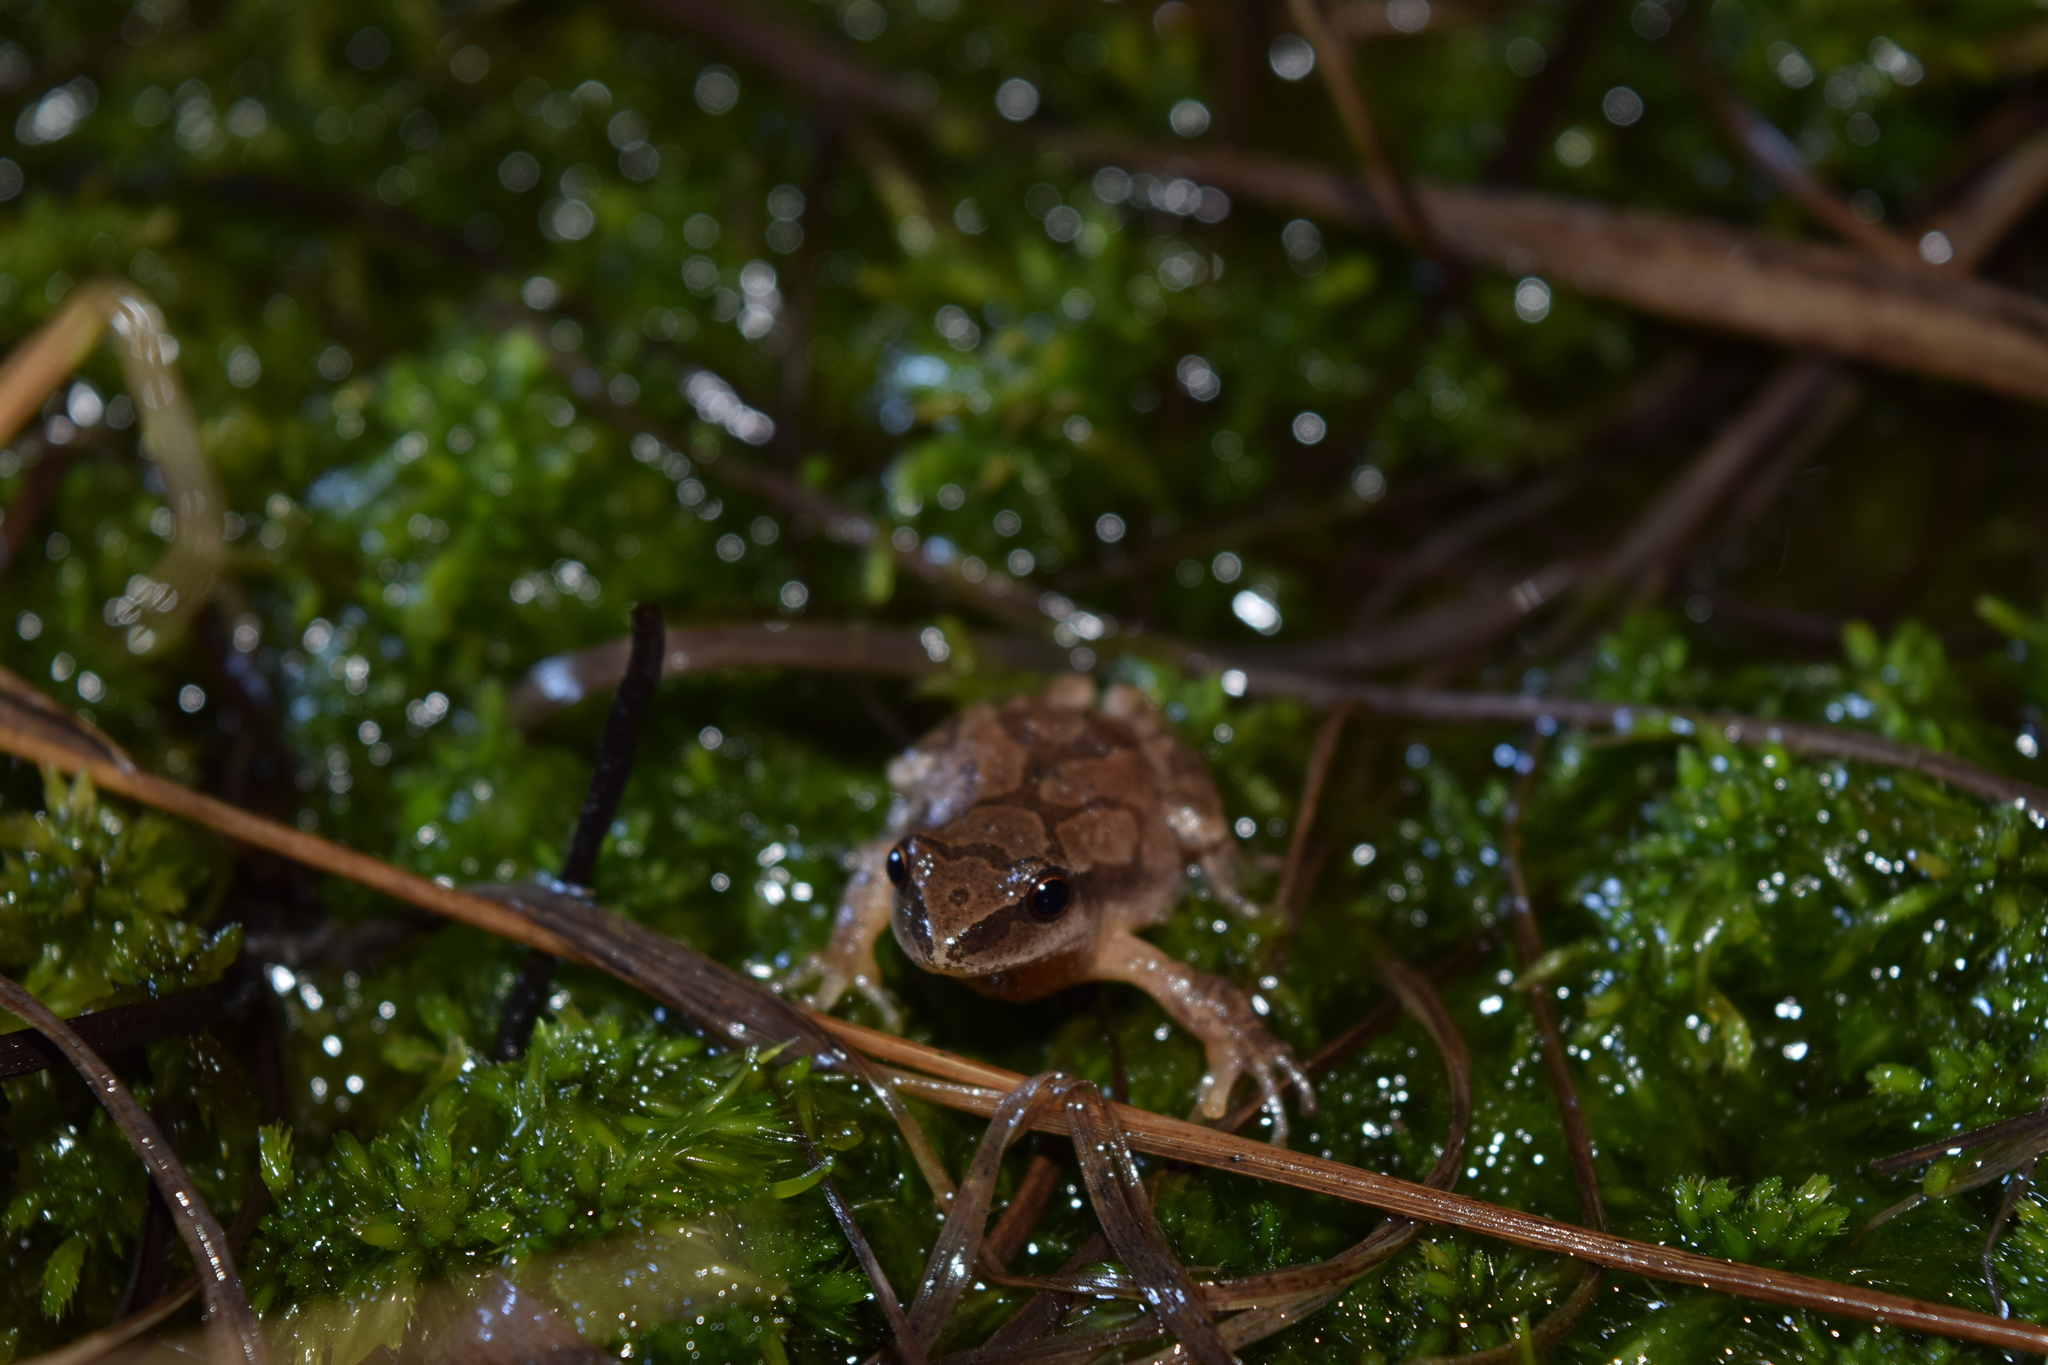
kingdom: Animalia
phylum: Chordata
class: Amphibia
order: Anura
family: Hylidae
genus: Pseudacris
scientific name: Pseudacris crucifer
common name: Spring peeper
